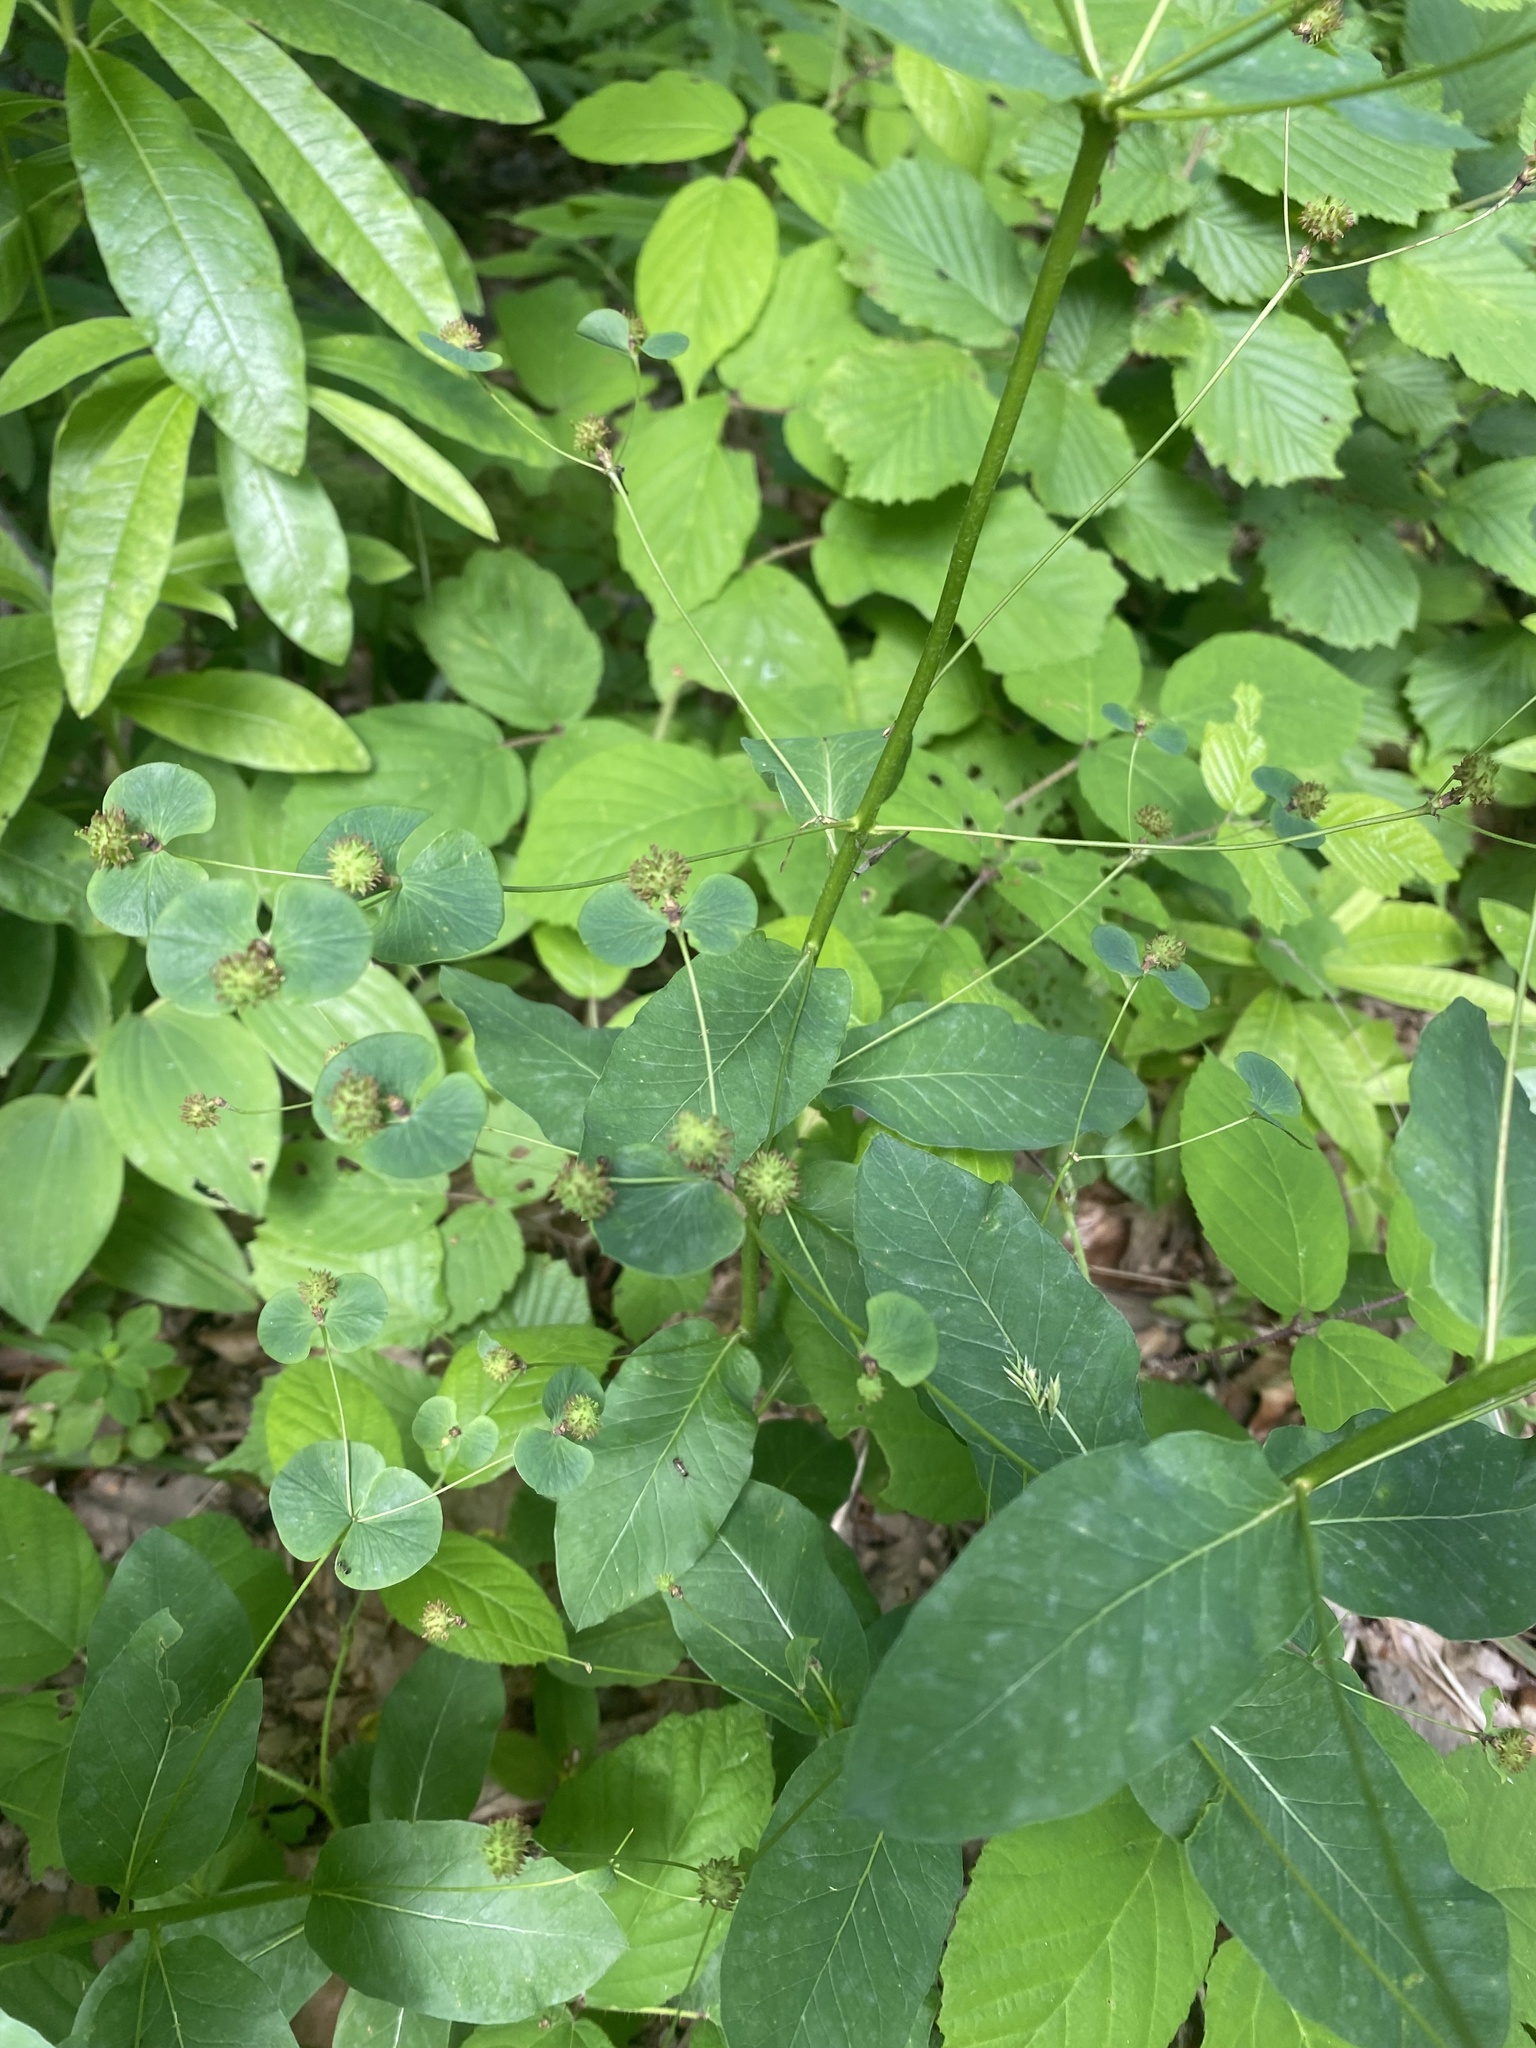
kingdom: Plantae
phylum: Tracheophyta
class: Magnoliopsida
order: Malpighiales
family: Euphorbiaceae
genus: Euphorbia
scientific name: Euphorbia squamosa
